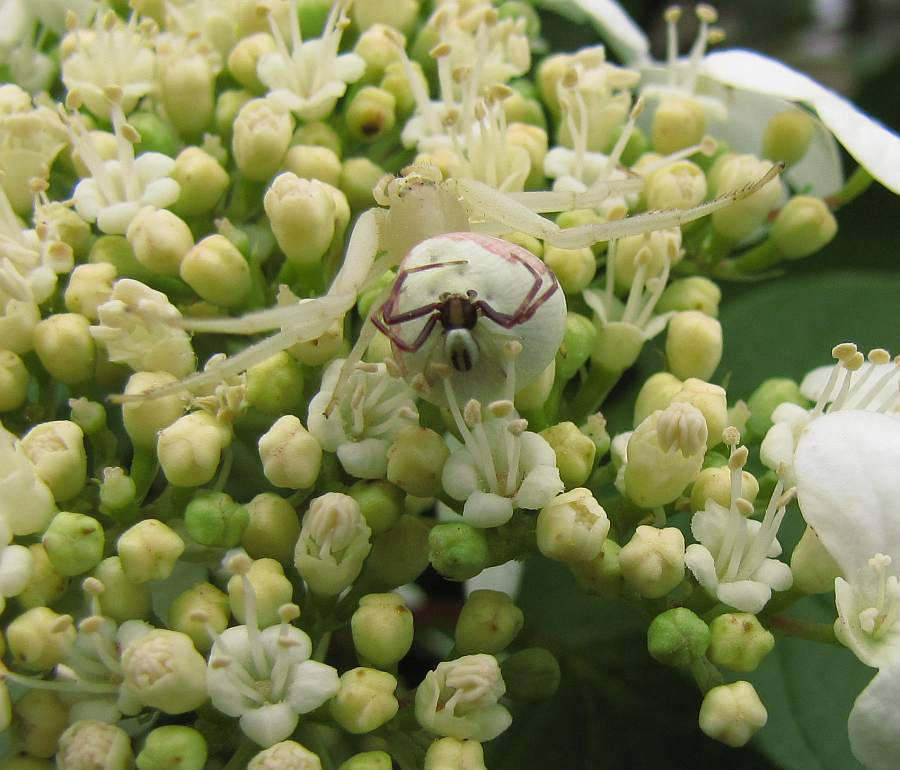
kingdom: Animalia
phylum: Arthropoda
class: Arachnida
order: Araneae
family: Thomisidae
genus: Misumena
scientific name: Misumena vatia
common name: Goldenrod crab spider
